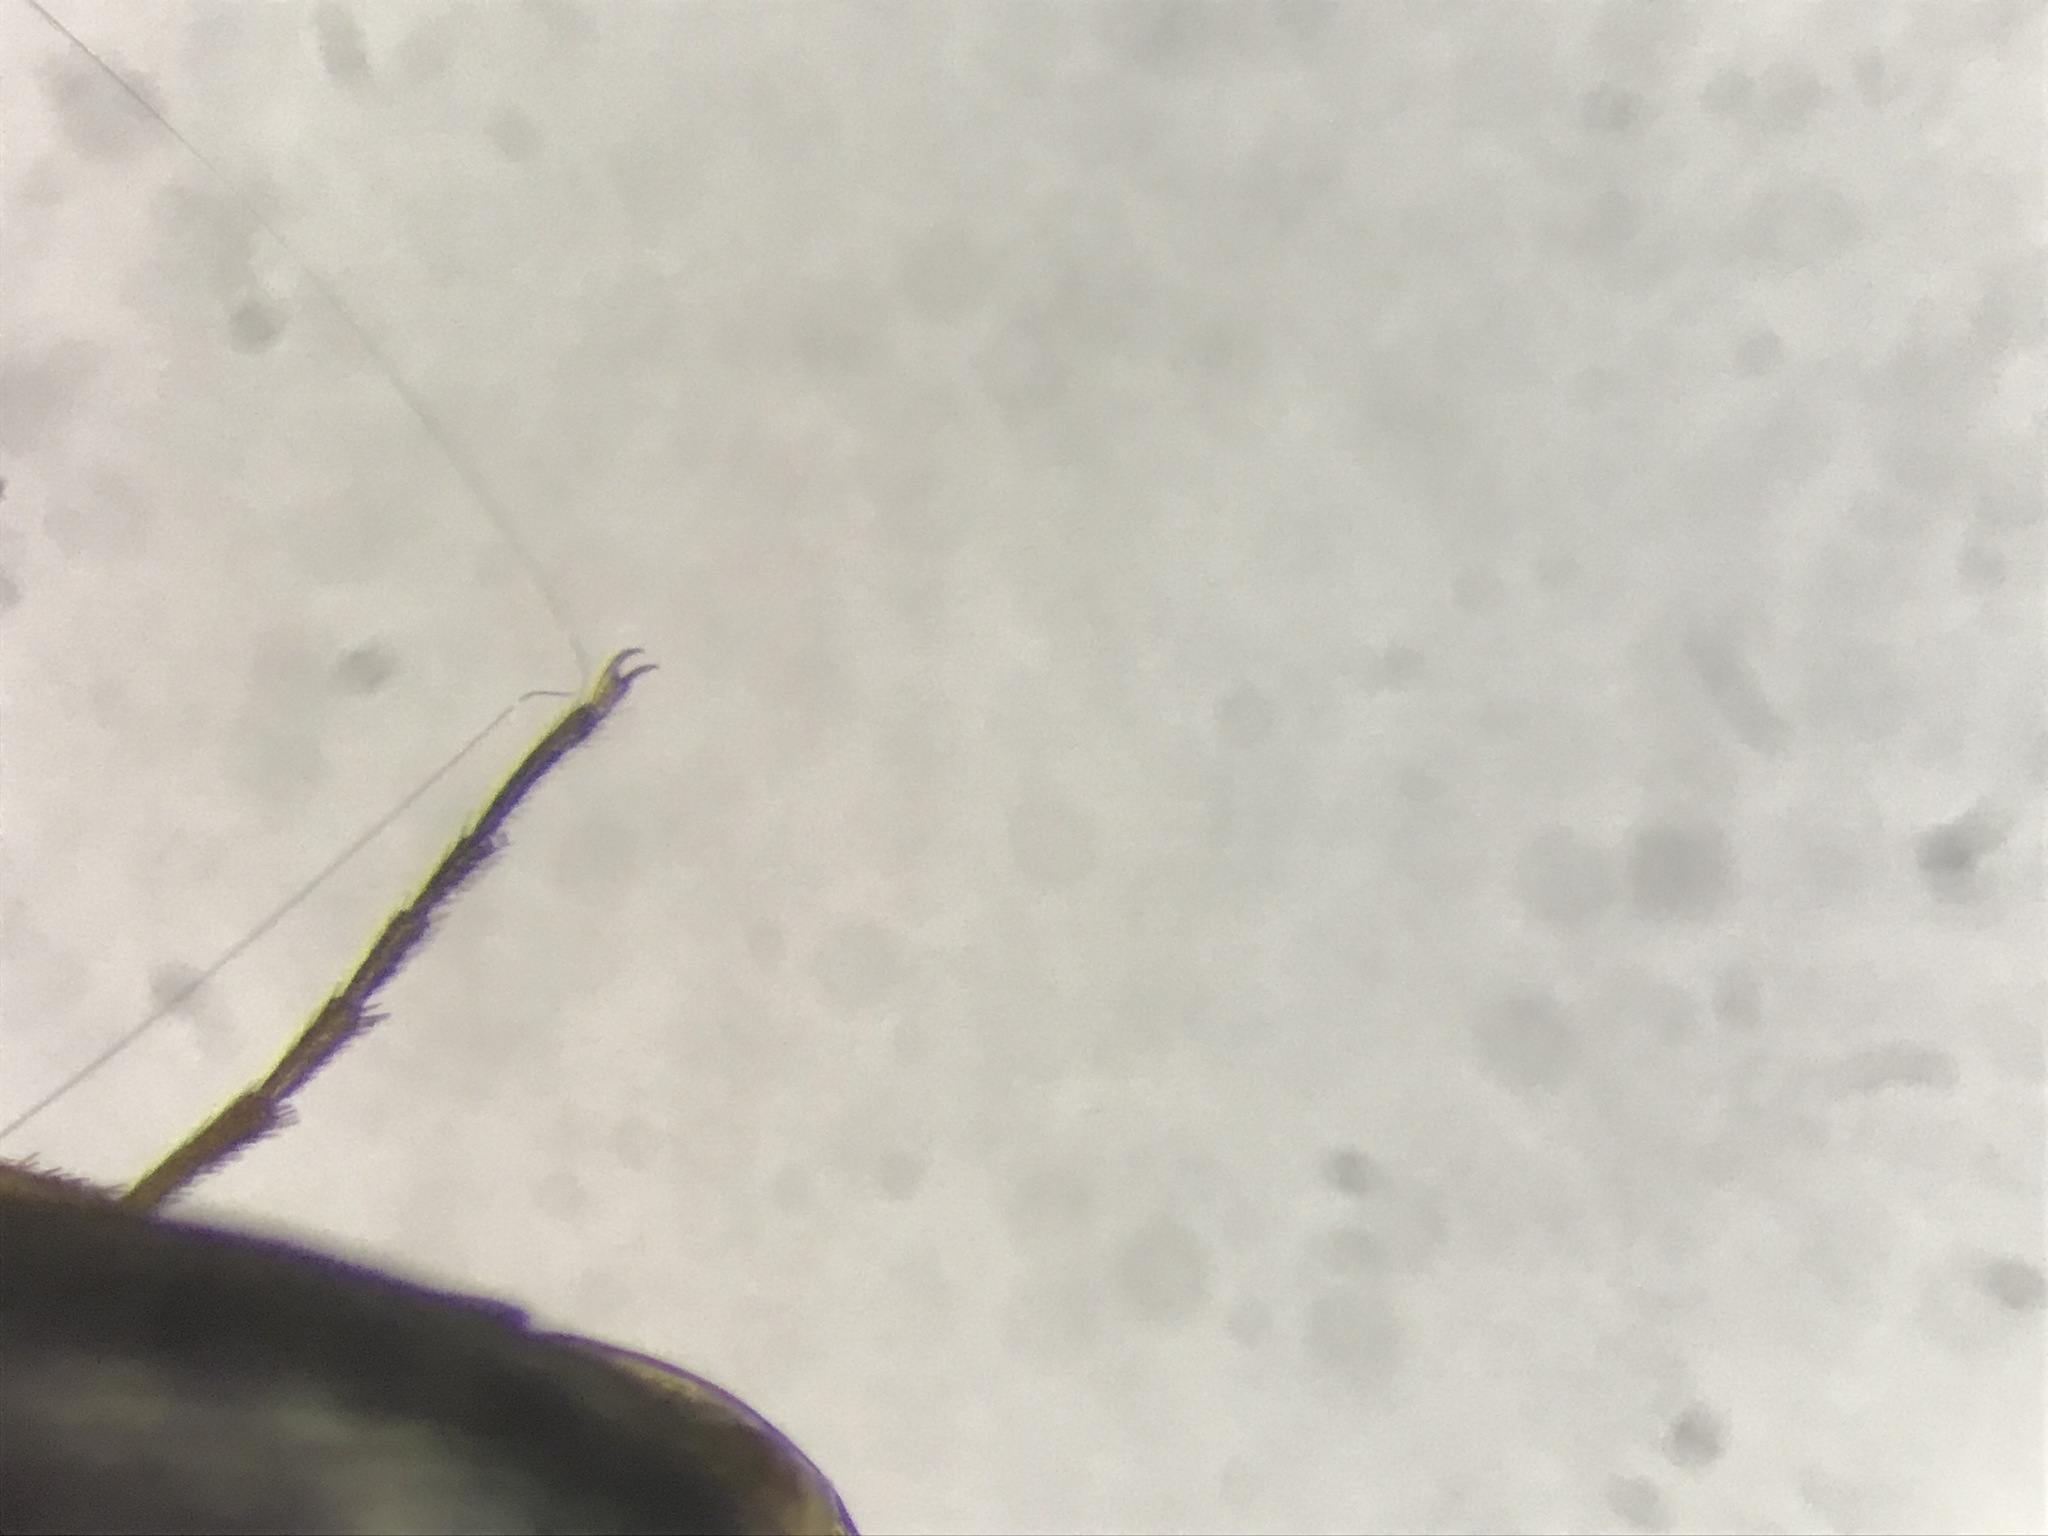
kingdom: Animalia
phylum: Arthropoda
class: Insecta
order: Coleoptera
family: Elateridae
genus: Oedostethus
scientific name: Oedostethus femoralis
